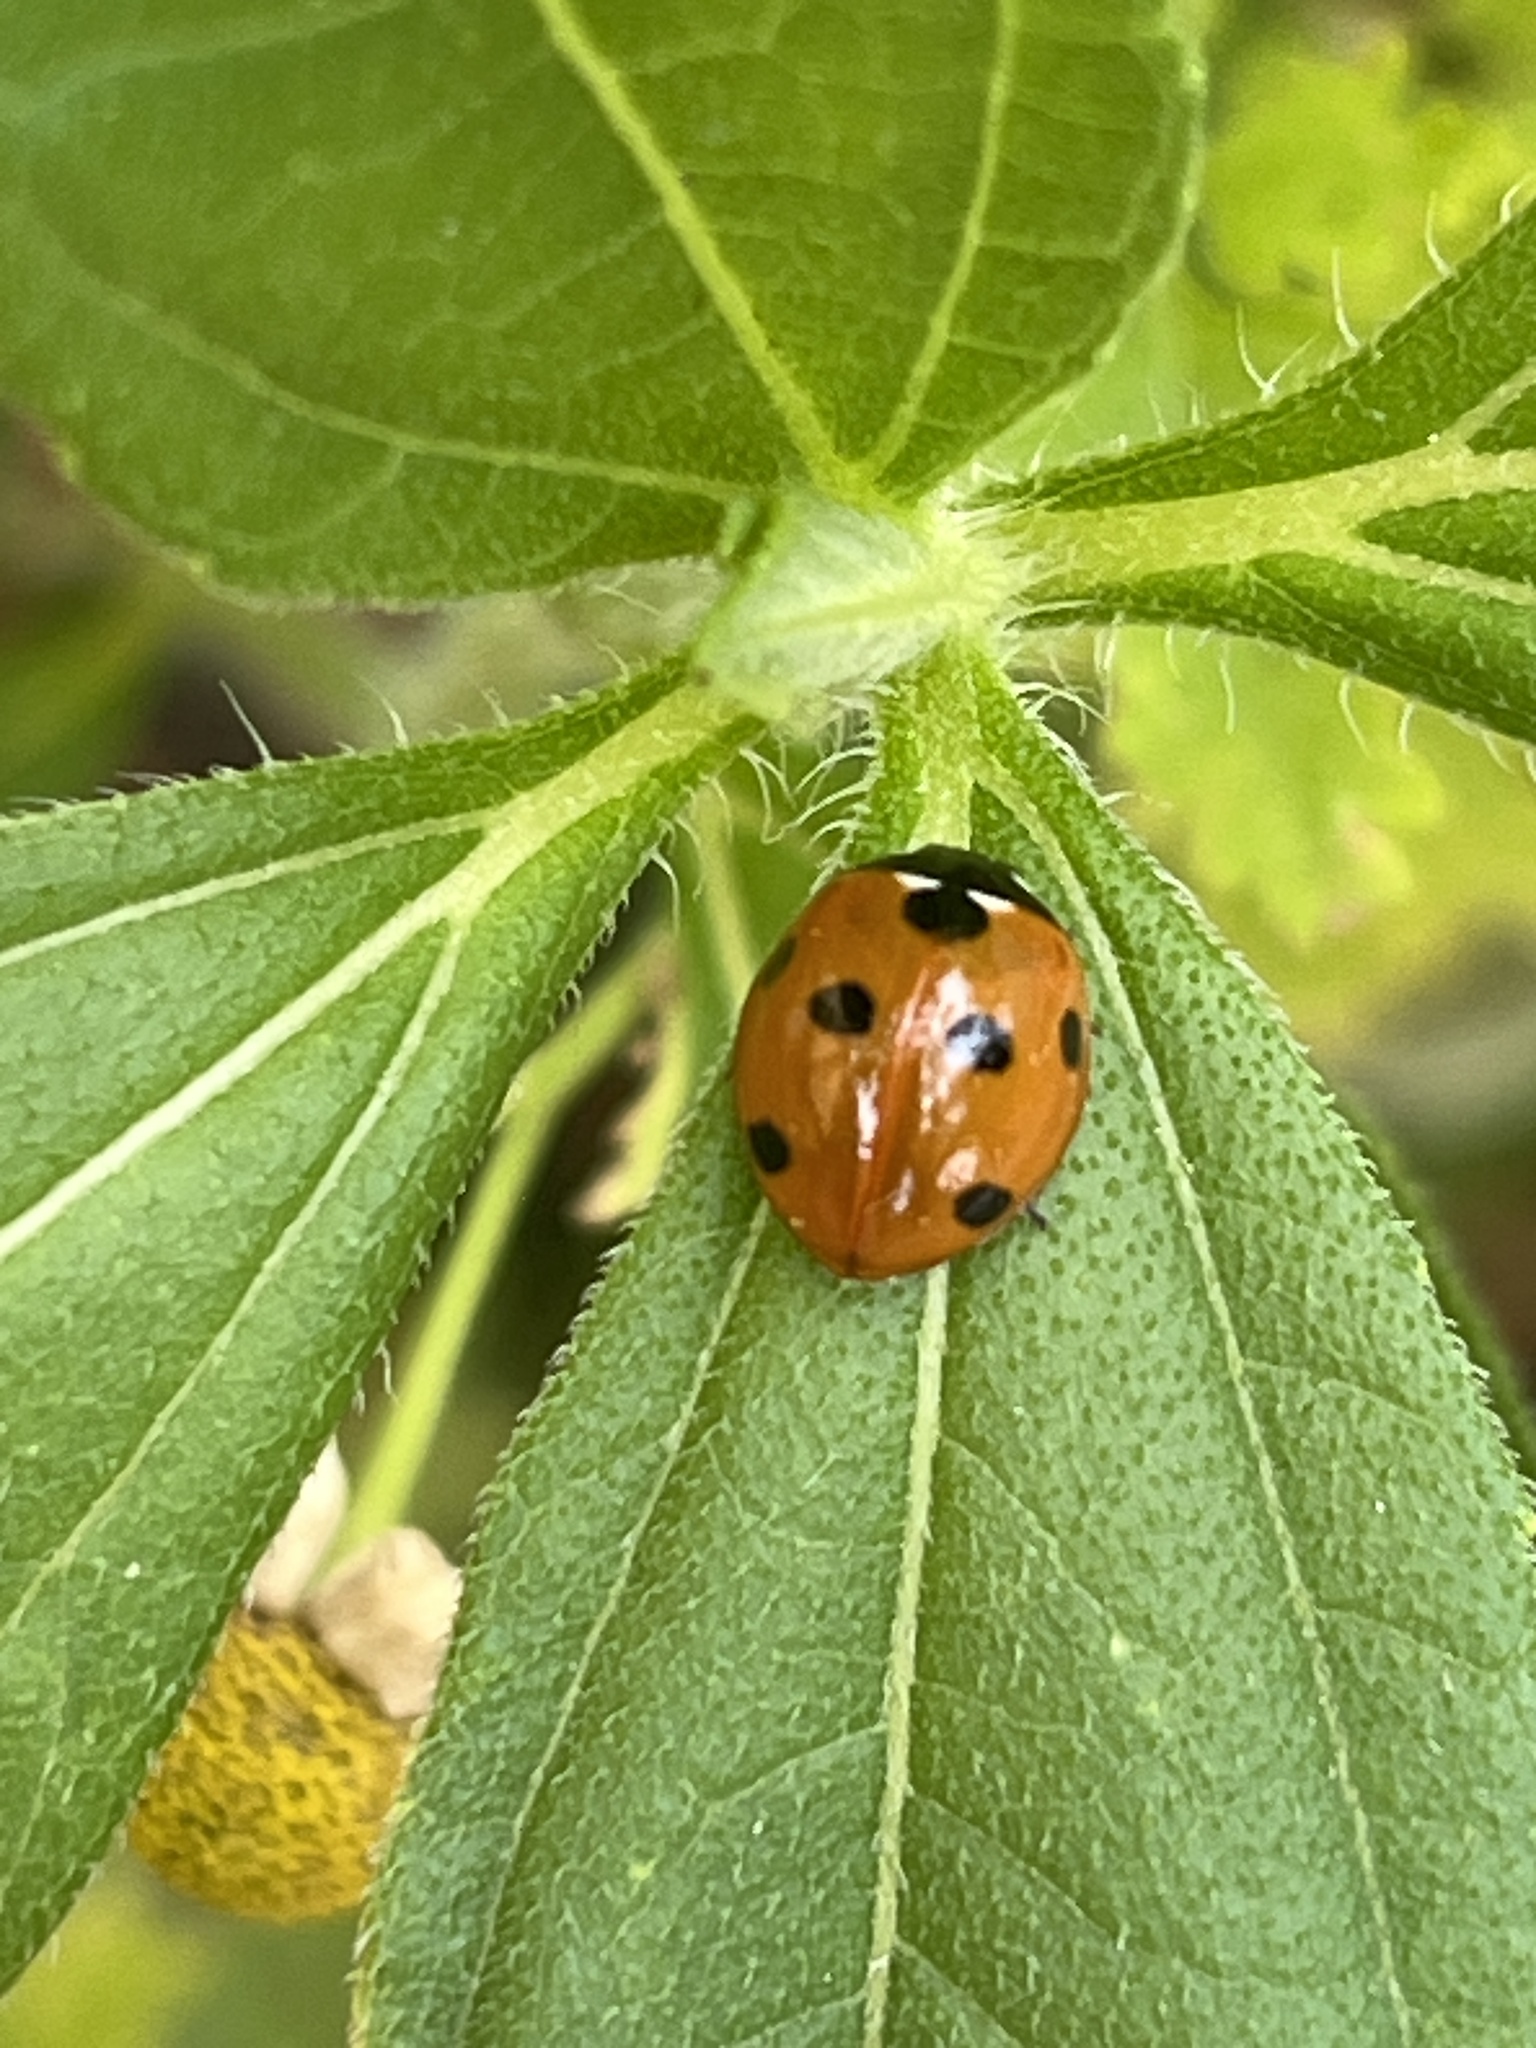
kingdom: Animalia
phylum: Arthropoda
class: Insecta
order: Coleoptera
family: Coccinellidae
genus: Coccinella
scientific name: Coccinella septempunctata
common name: Sevenspotted lady beetle
